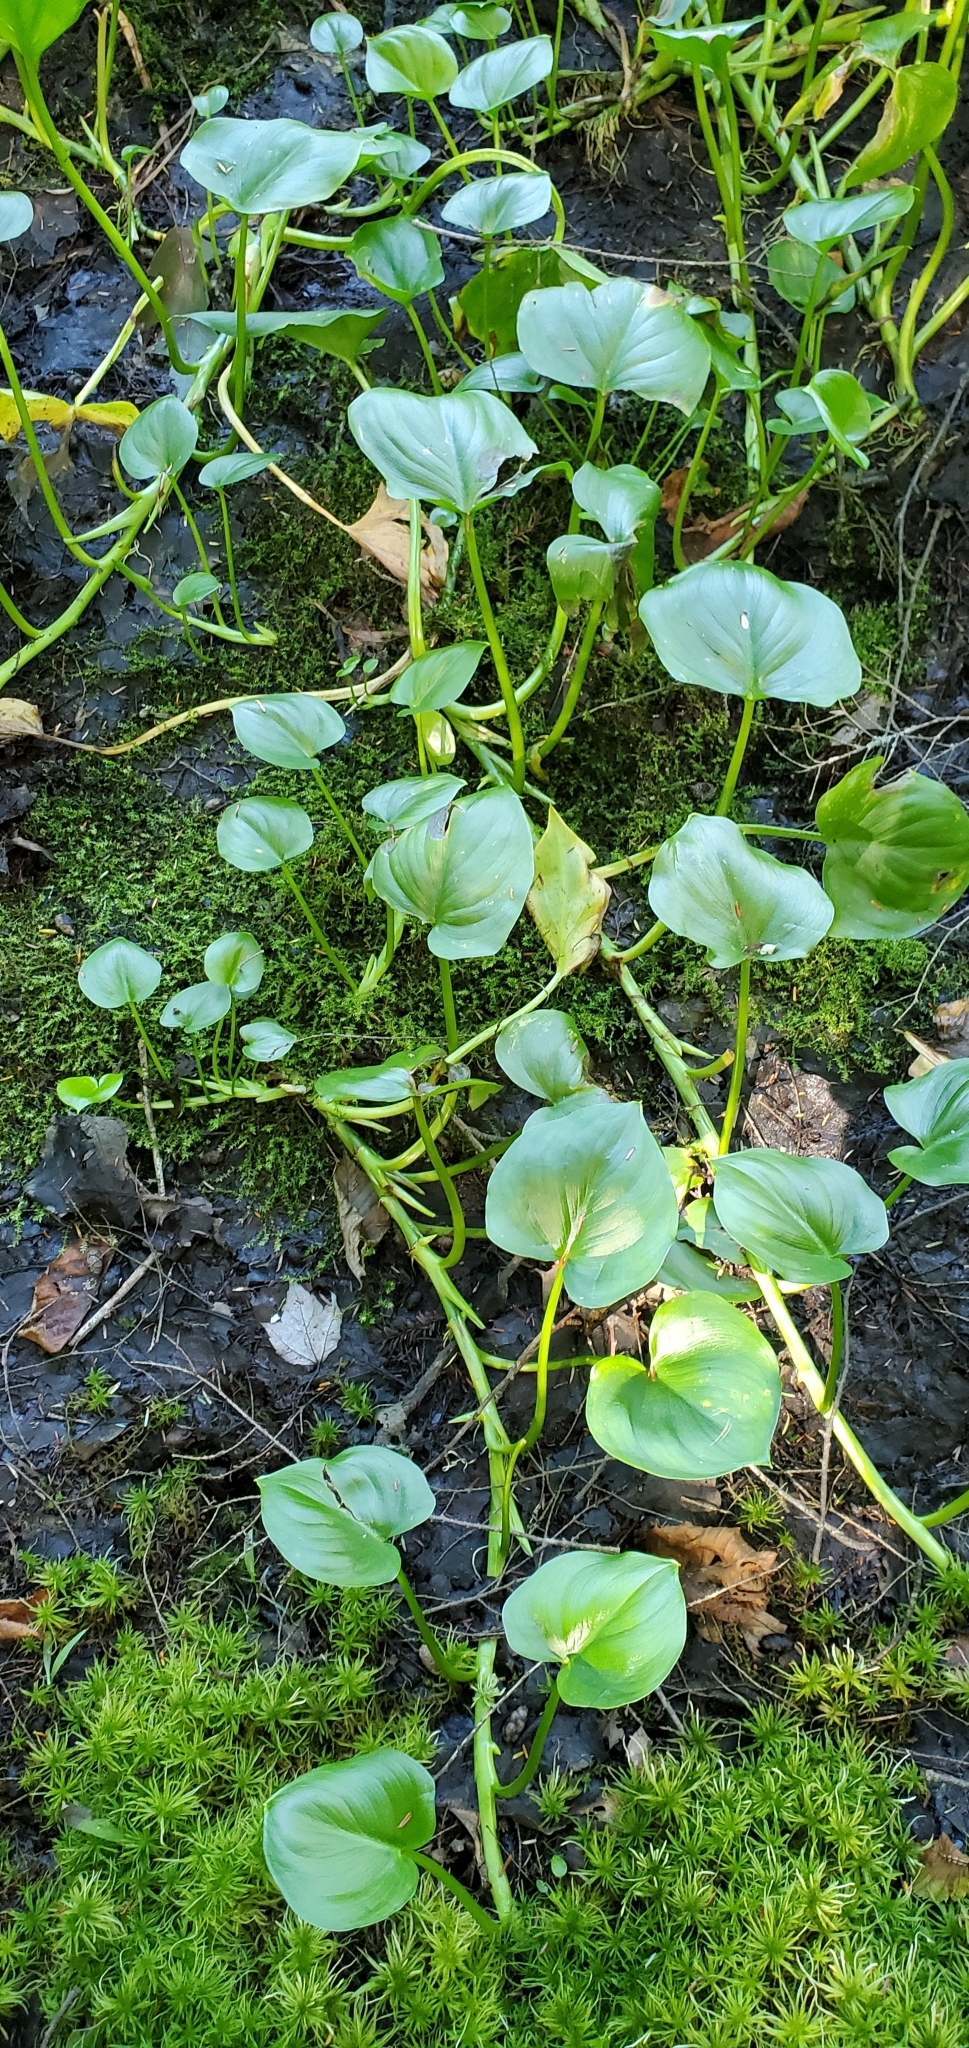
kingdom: Plantae
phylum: Tracheophyta
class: Liliopsida
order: Alismatales
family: Araceae
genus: Calla
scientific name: Calla palustris
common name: Bog arum
